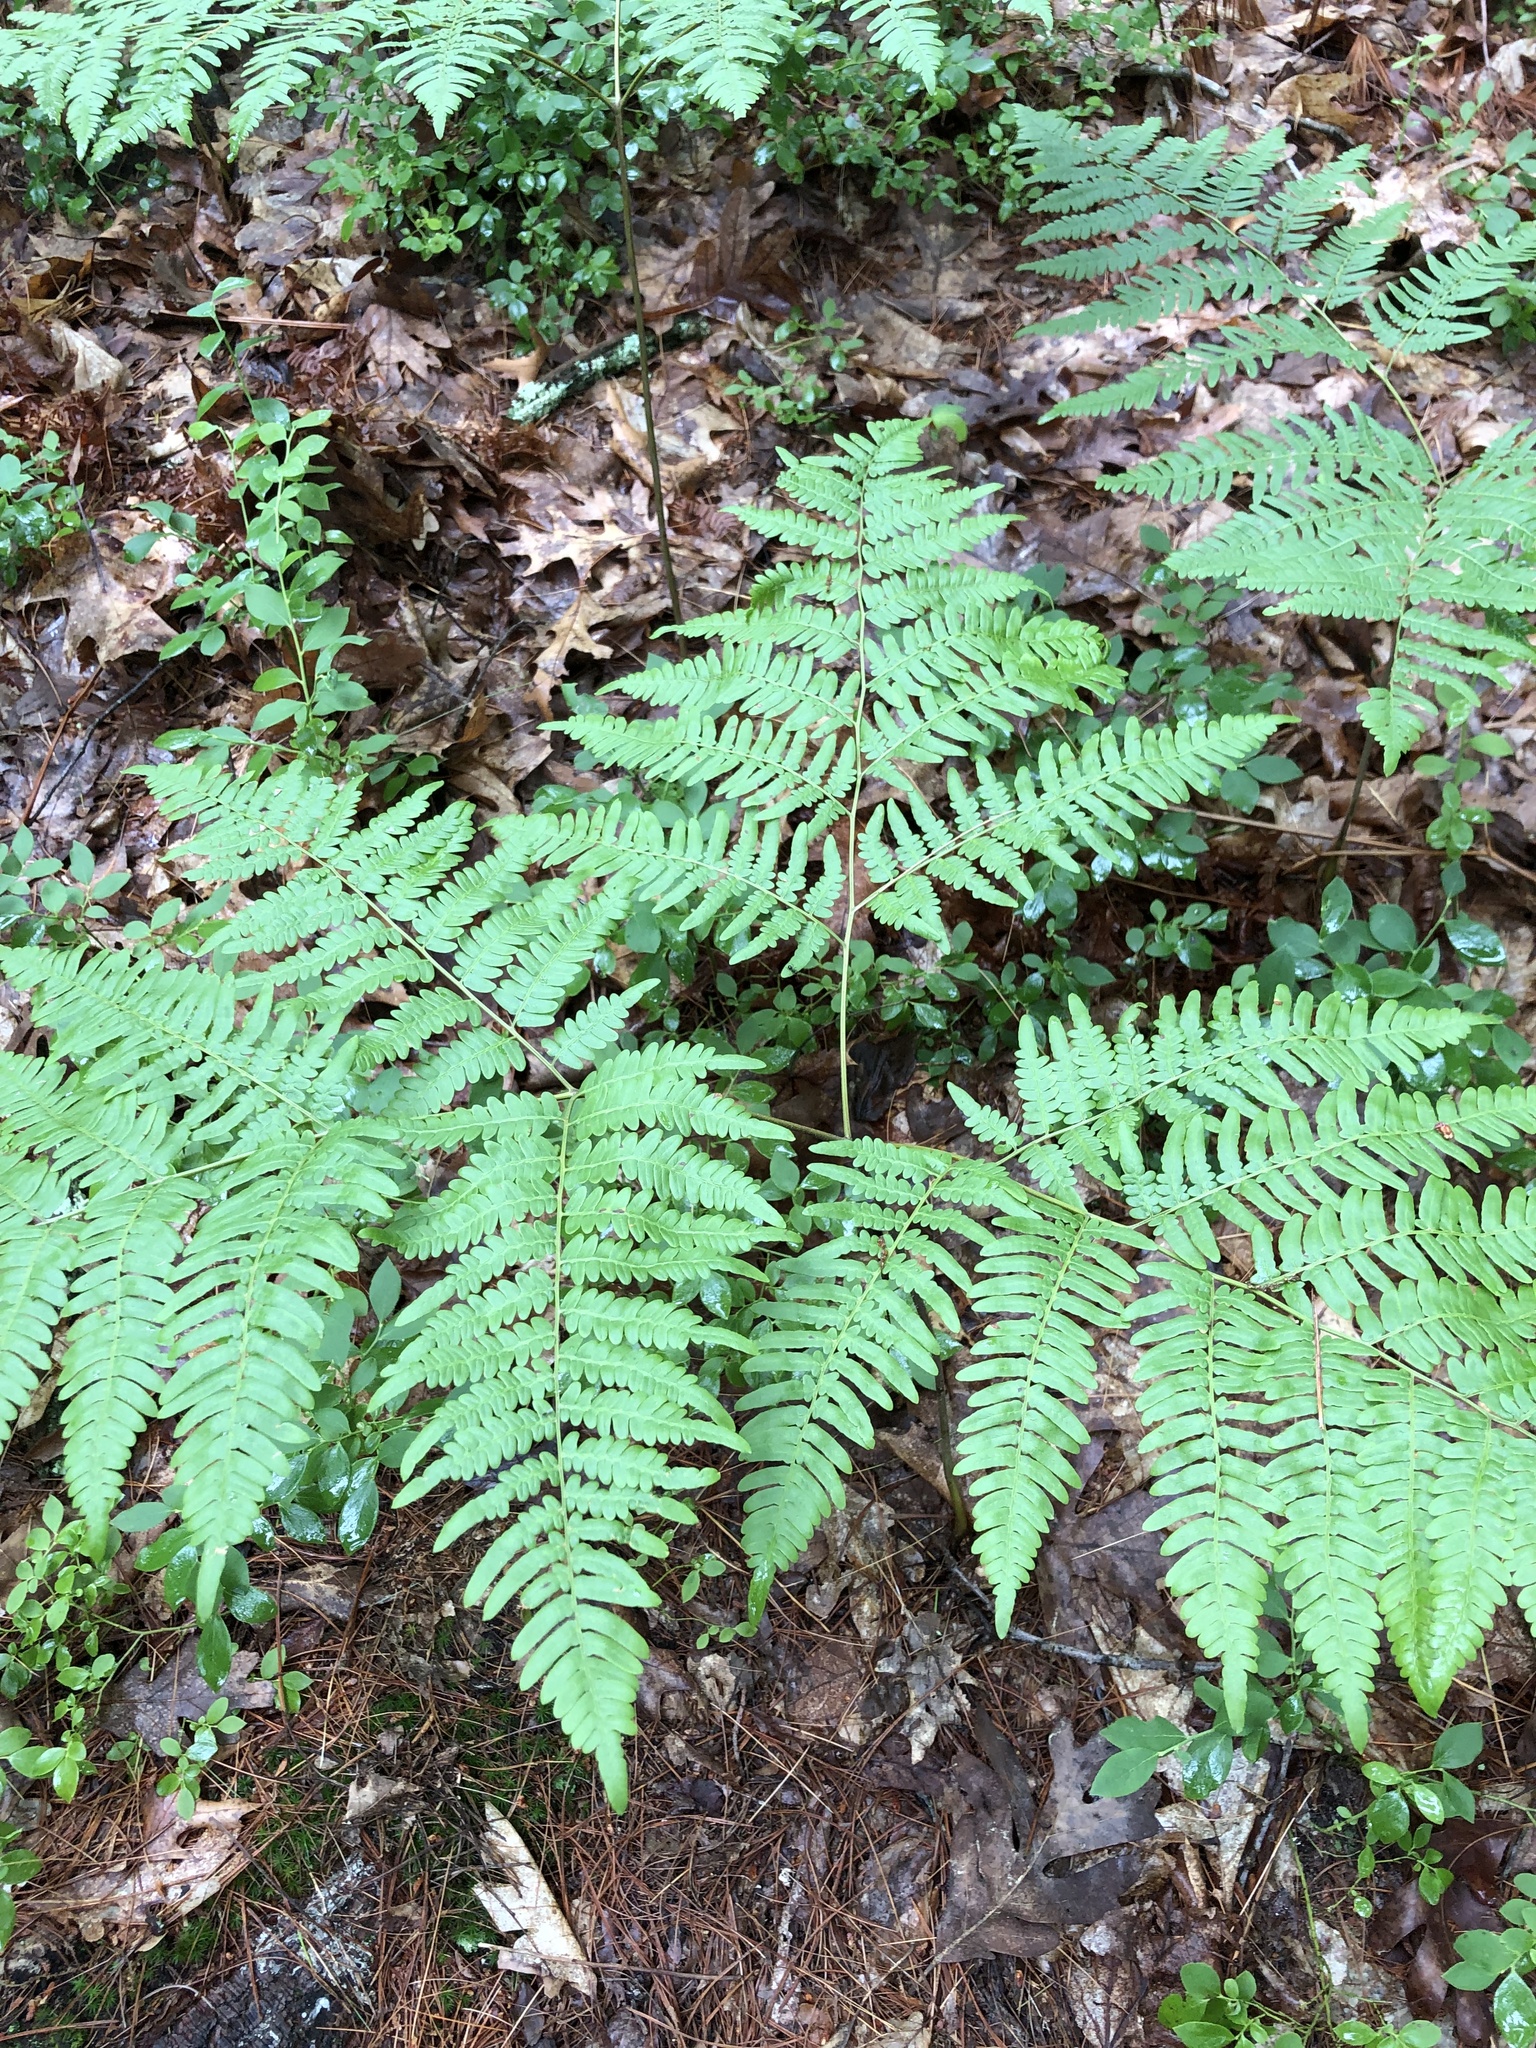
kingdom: Plantae
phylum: Tracheophyta
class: Polypodiopsida
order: Polypodiales
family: Dennstaedtiaceae
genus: Pteridium
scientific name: Pteridium aquilinum
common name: Bracken
